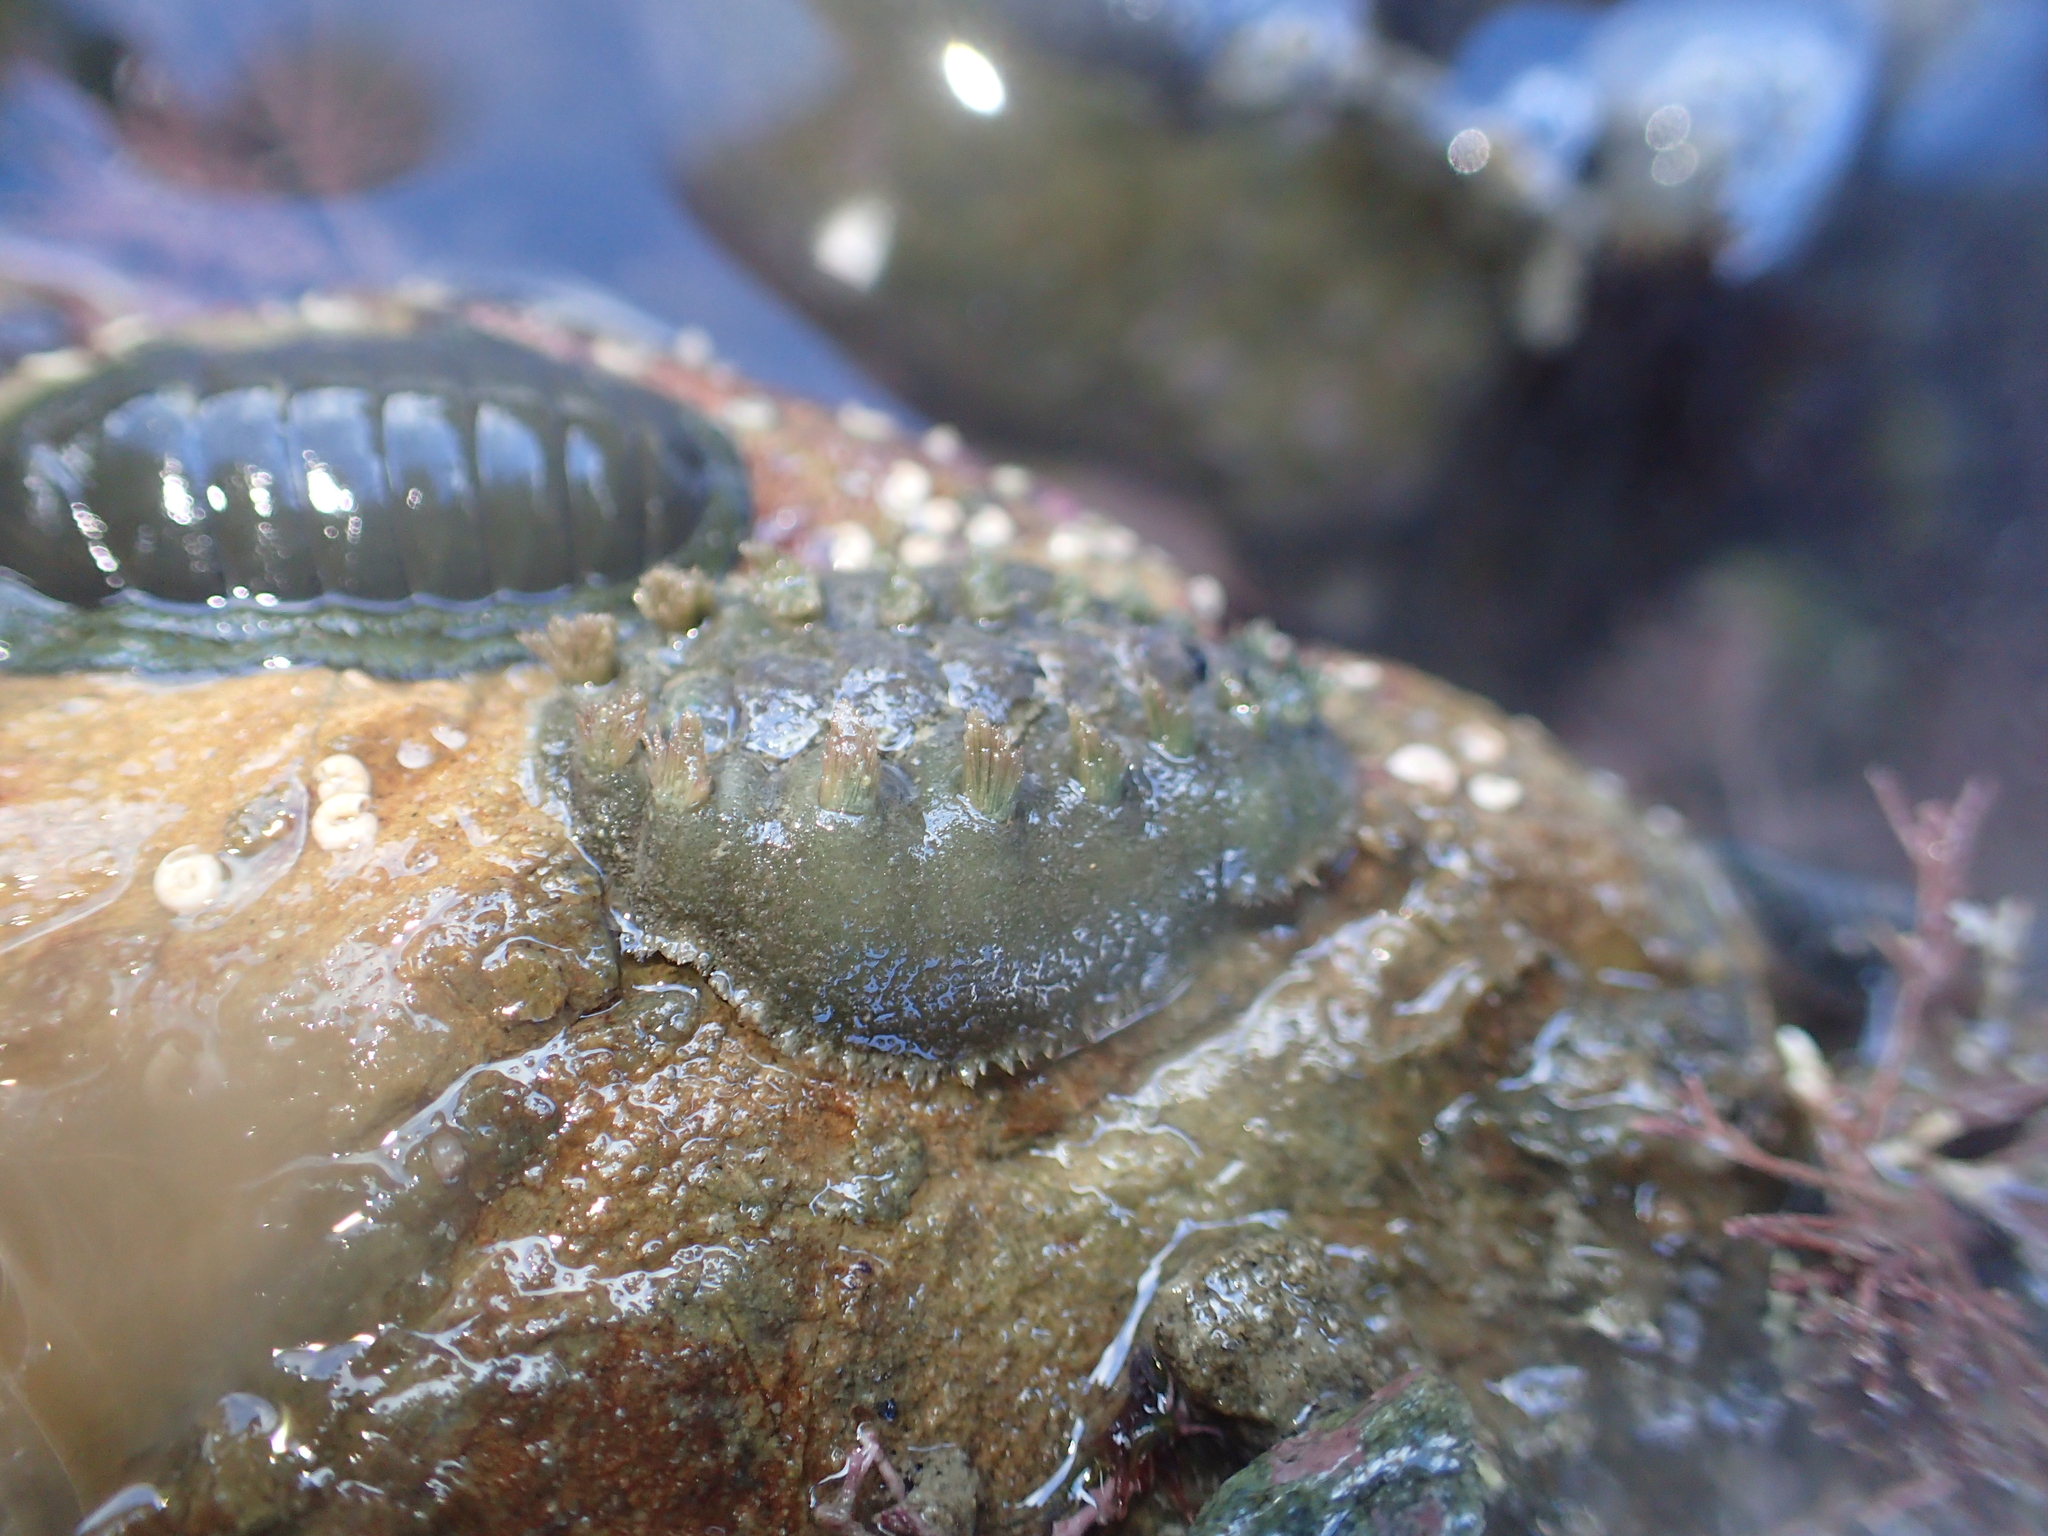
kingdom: Animalia
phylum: Mollusca
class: Polyplacophora
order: Chitonida
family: Acanthochitonidae
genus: Acanthochitona
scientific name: Acanthochitona zelandica
